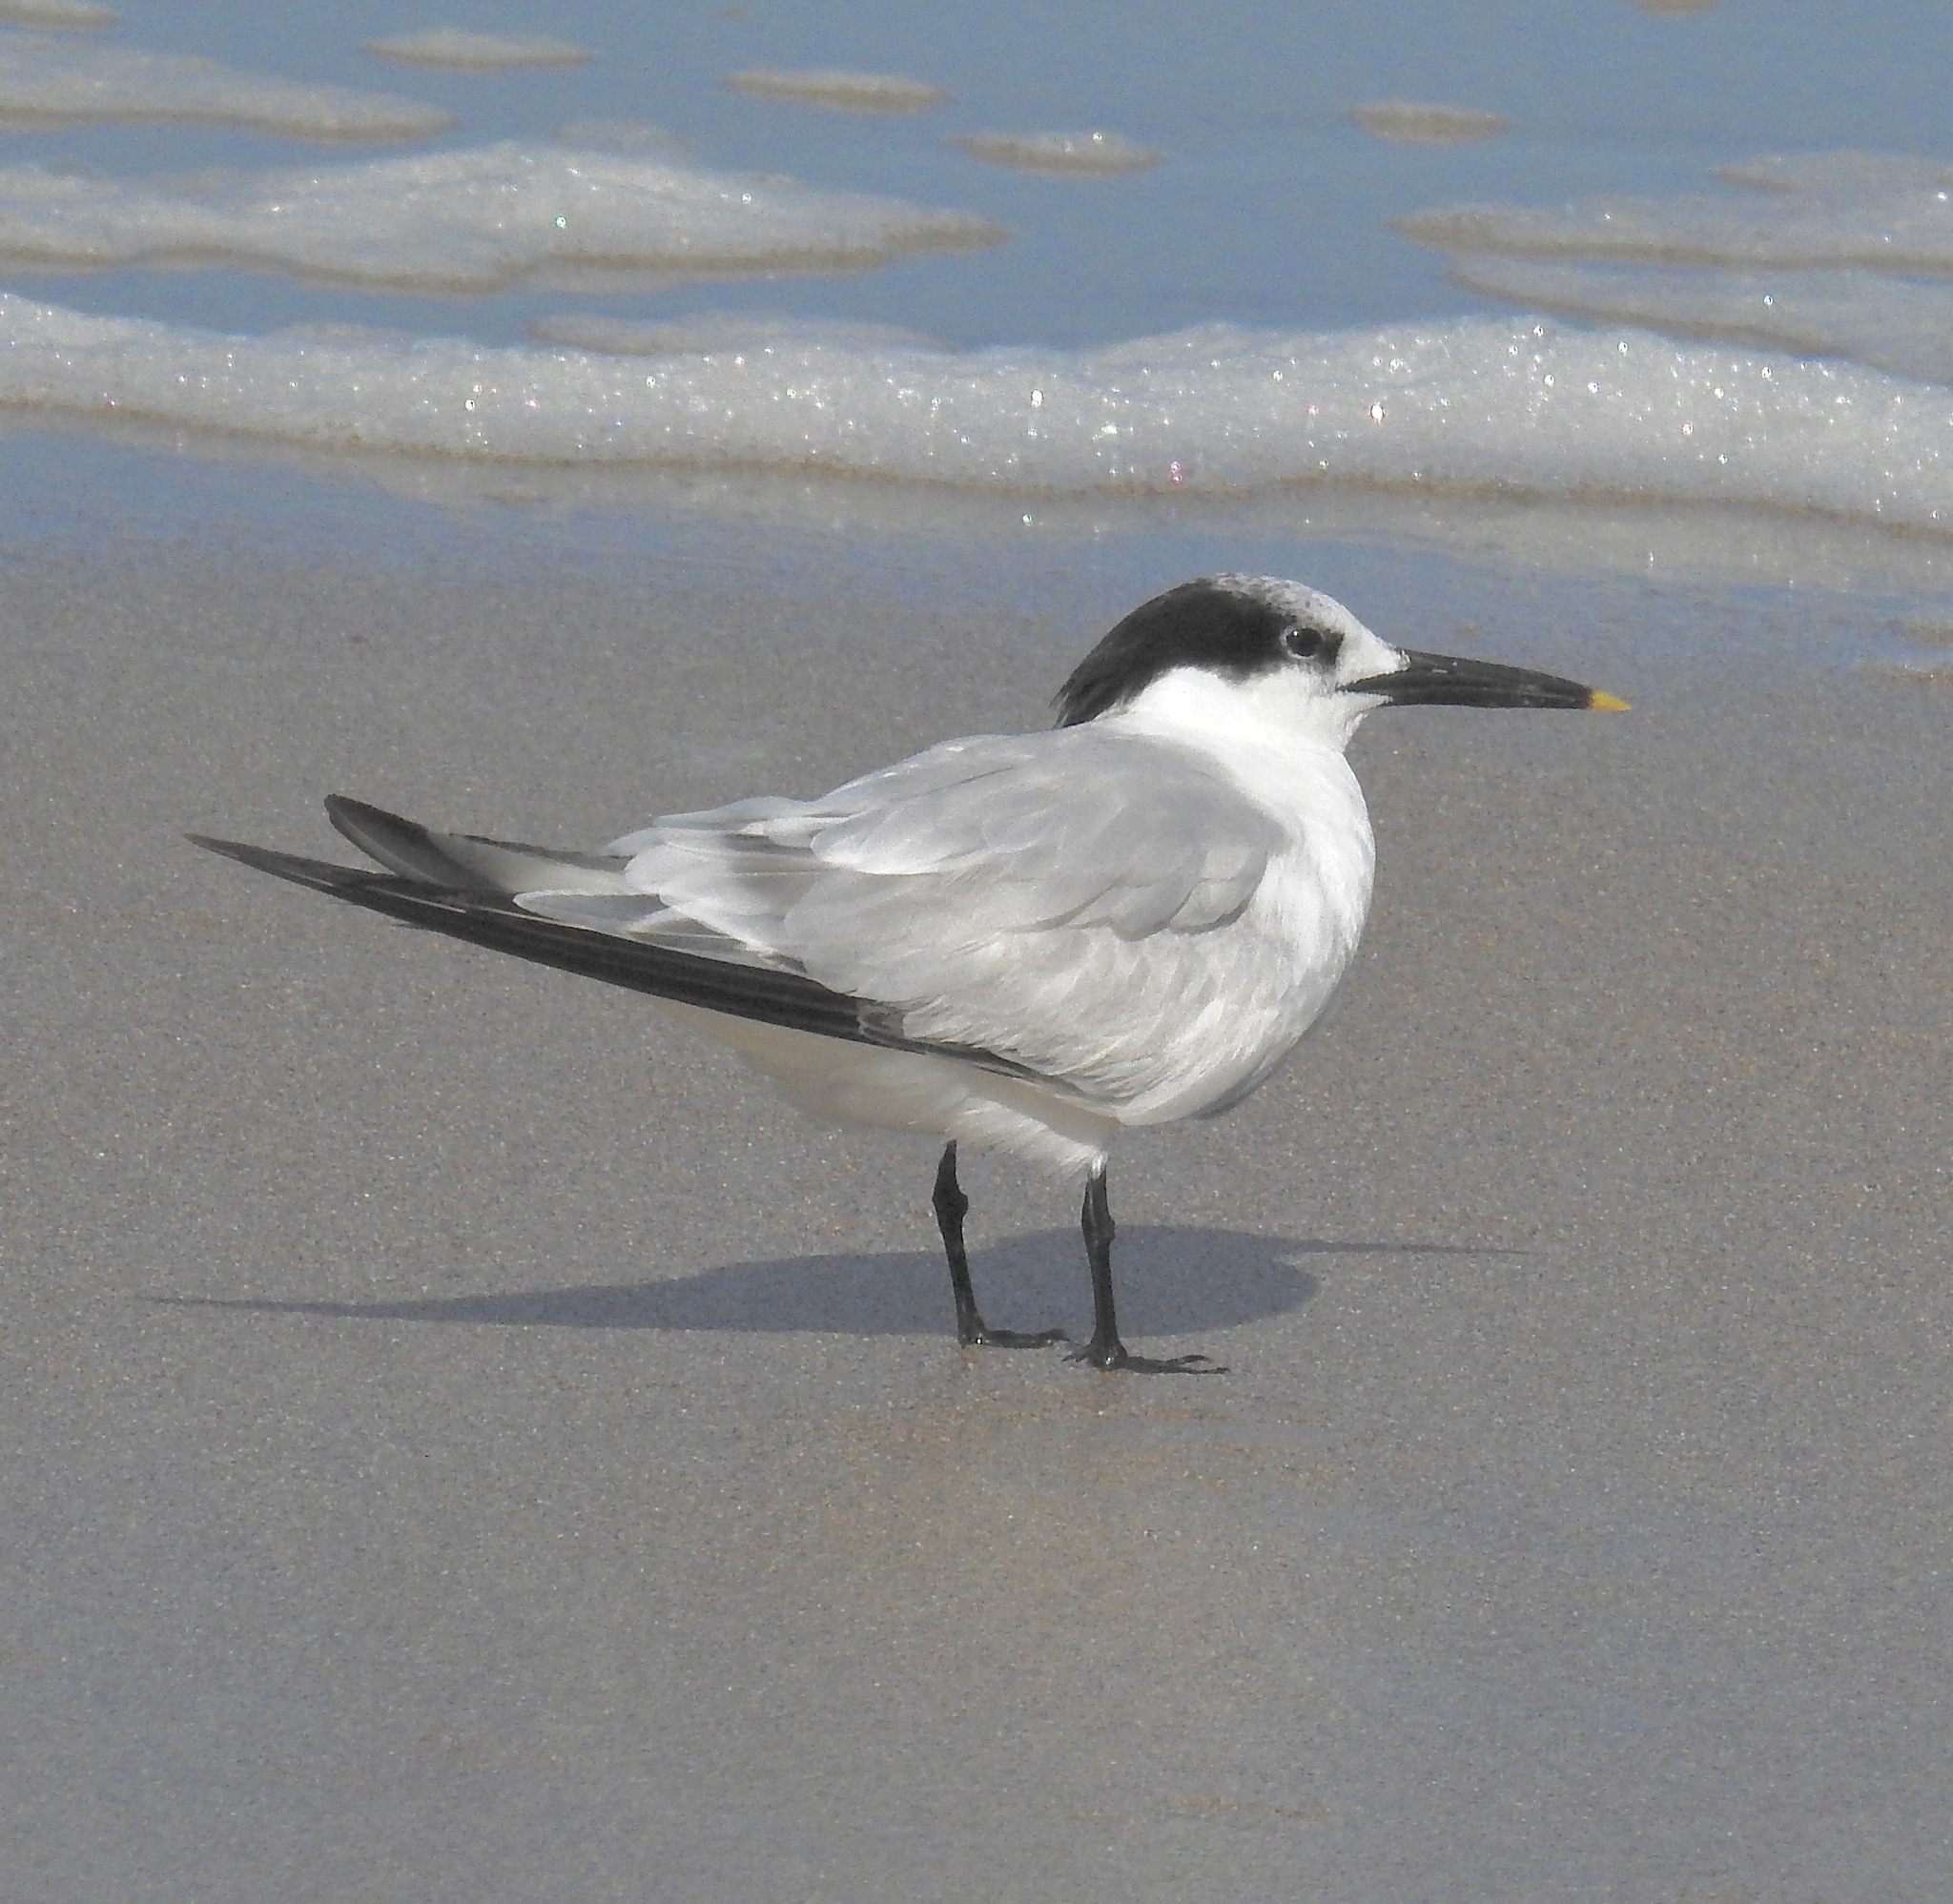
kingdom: Animalia
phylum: Chordata
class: Aves
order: Charadriiformes
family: Laridae
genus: Thalasseus
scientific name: Thalasseus sandvicensis
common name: Sandwich tern
